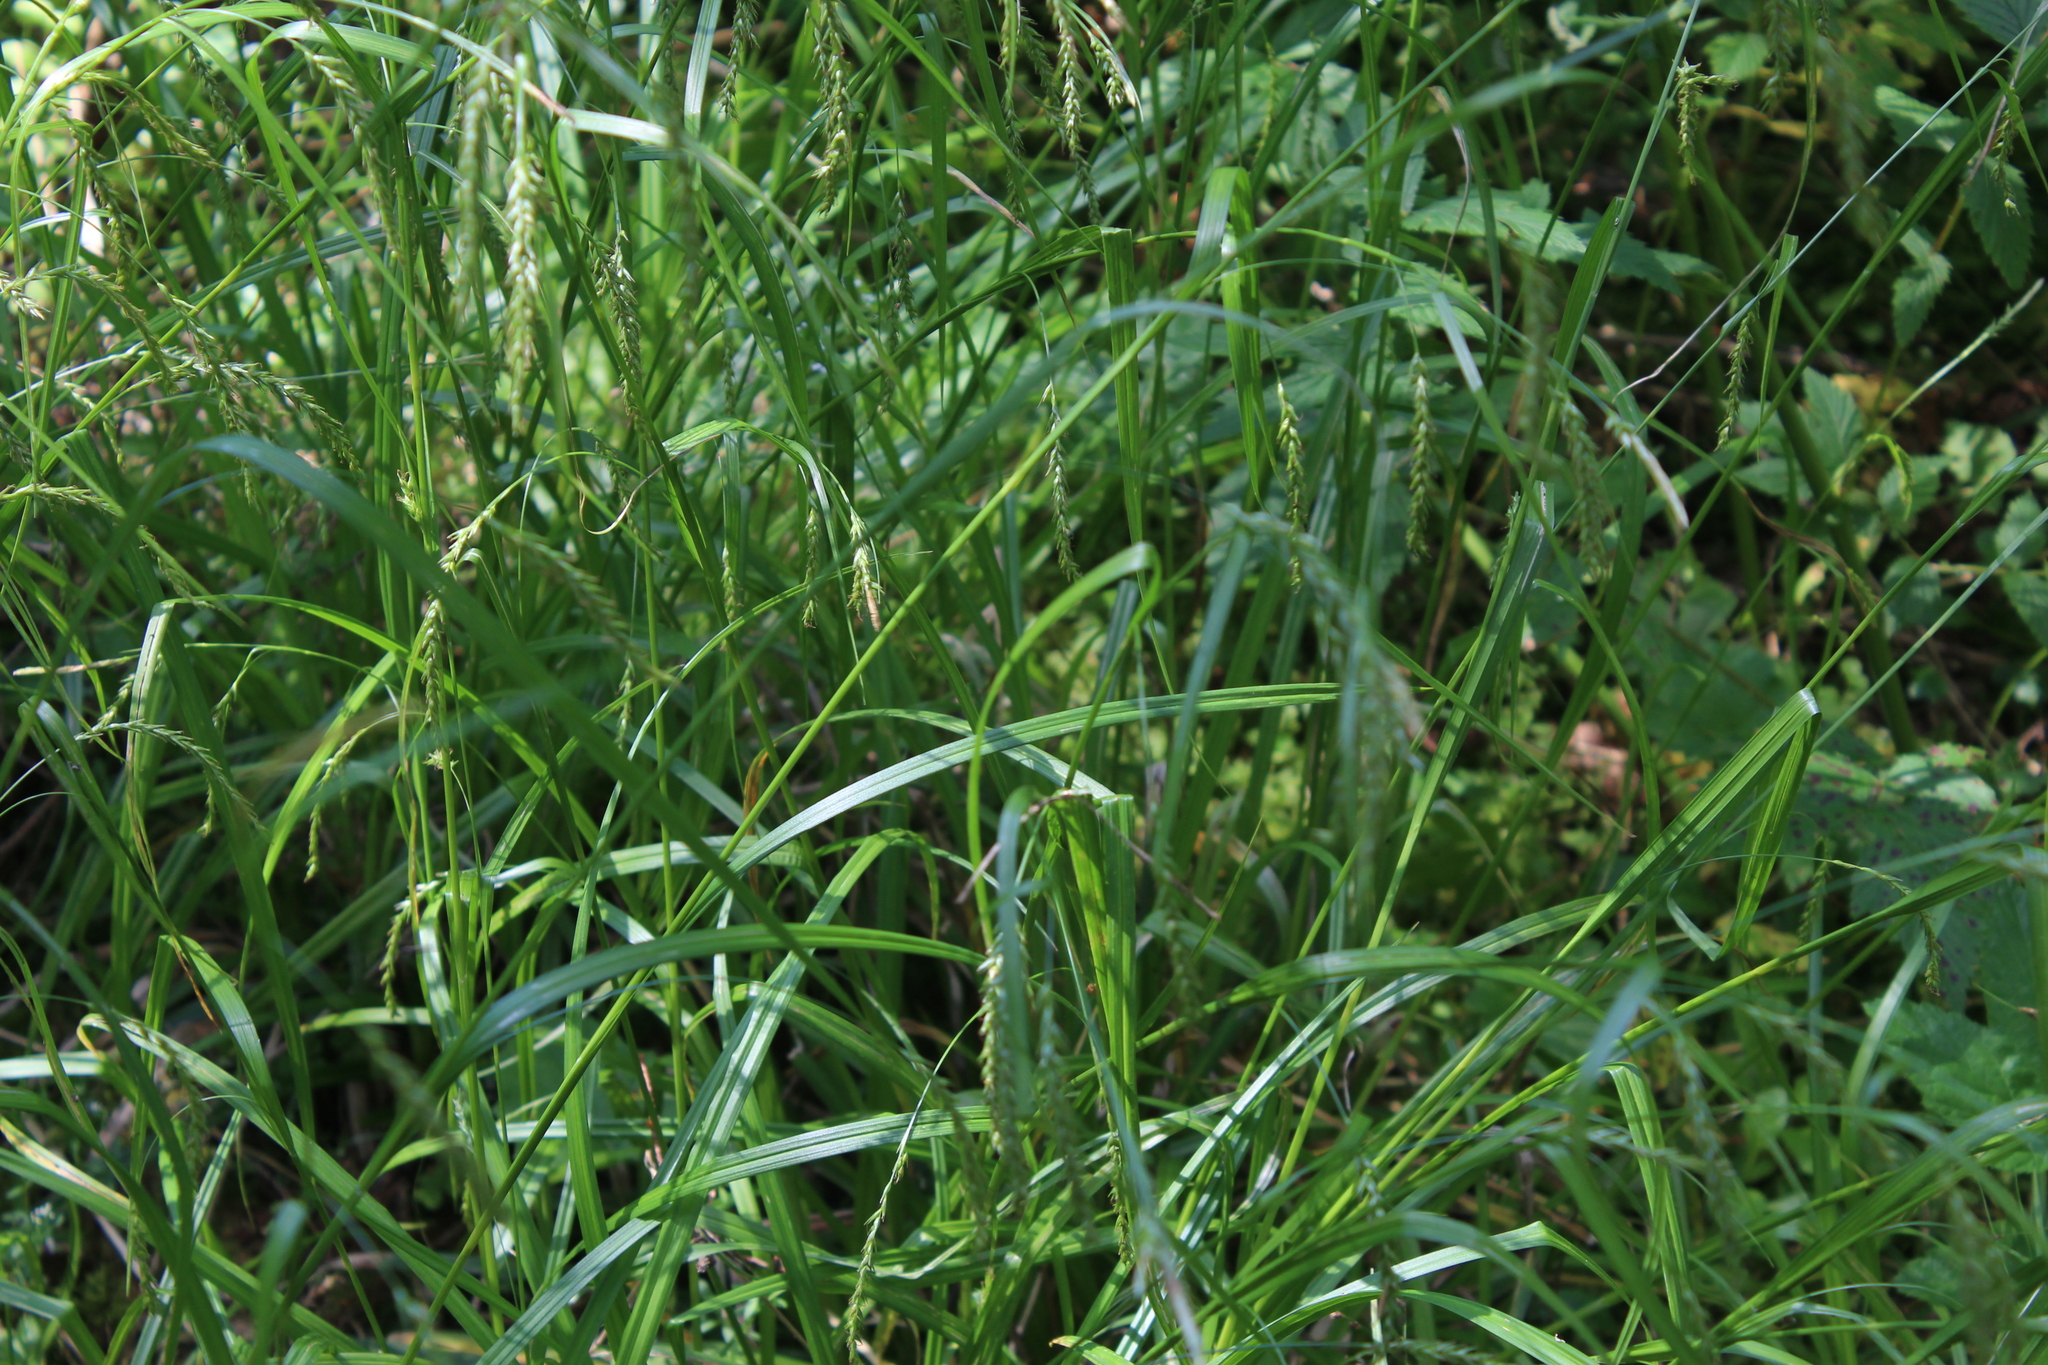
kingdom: Plantae
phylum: Tracheophyta
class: Liliopsida
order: Poales
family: Cyperaceae
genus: Carex
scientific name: Carex sylvatica
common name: Wood-sedge
